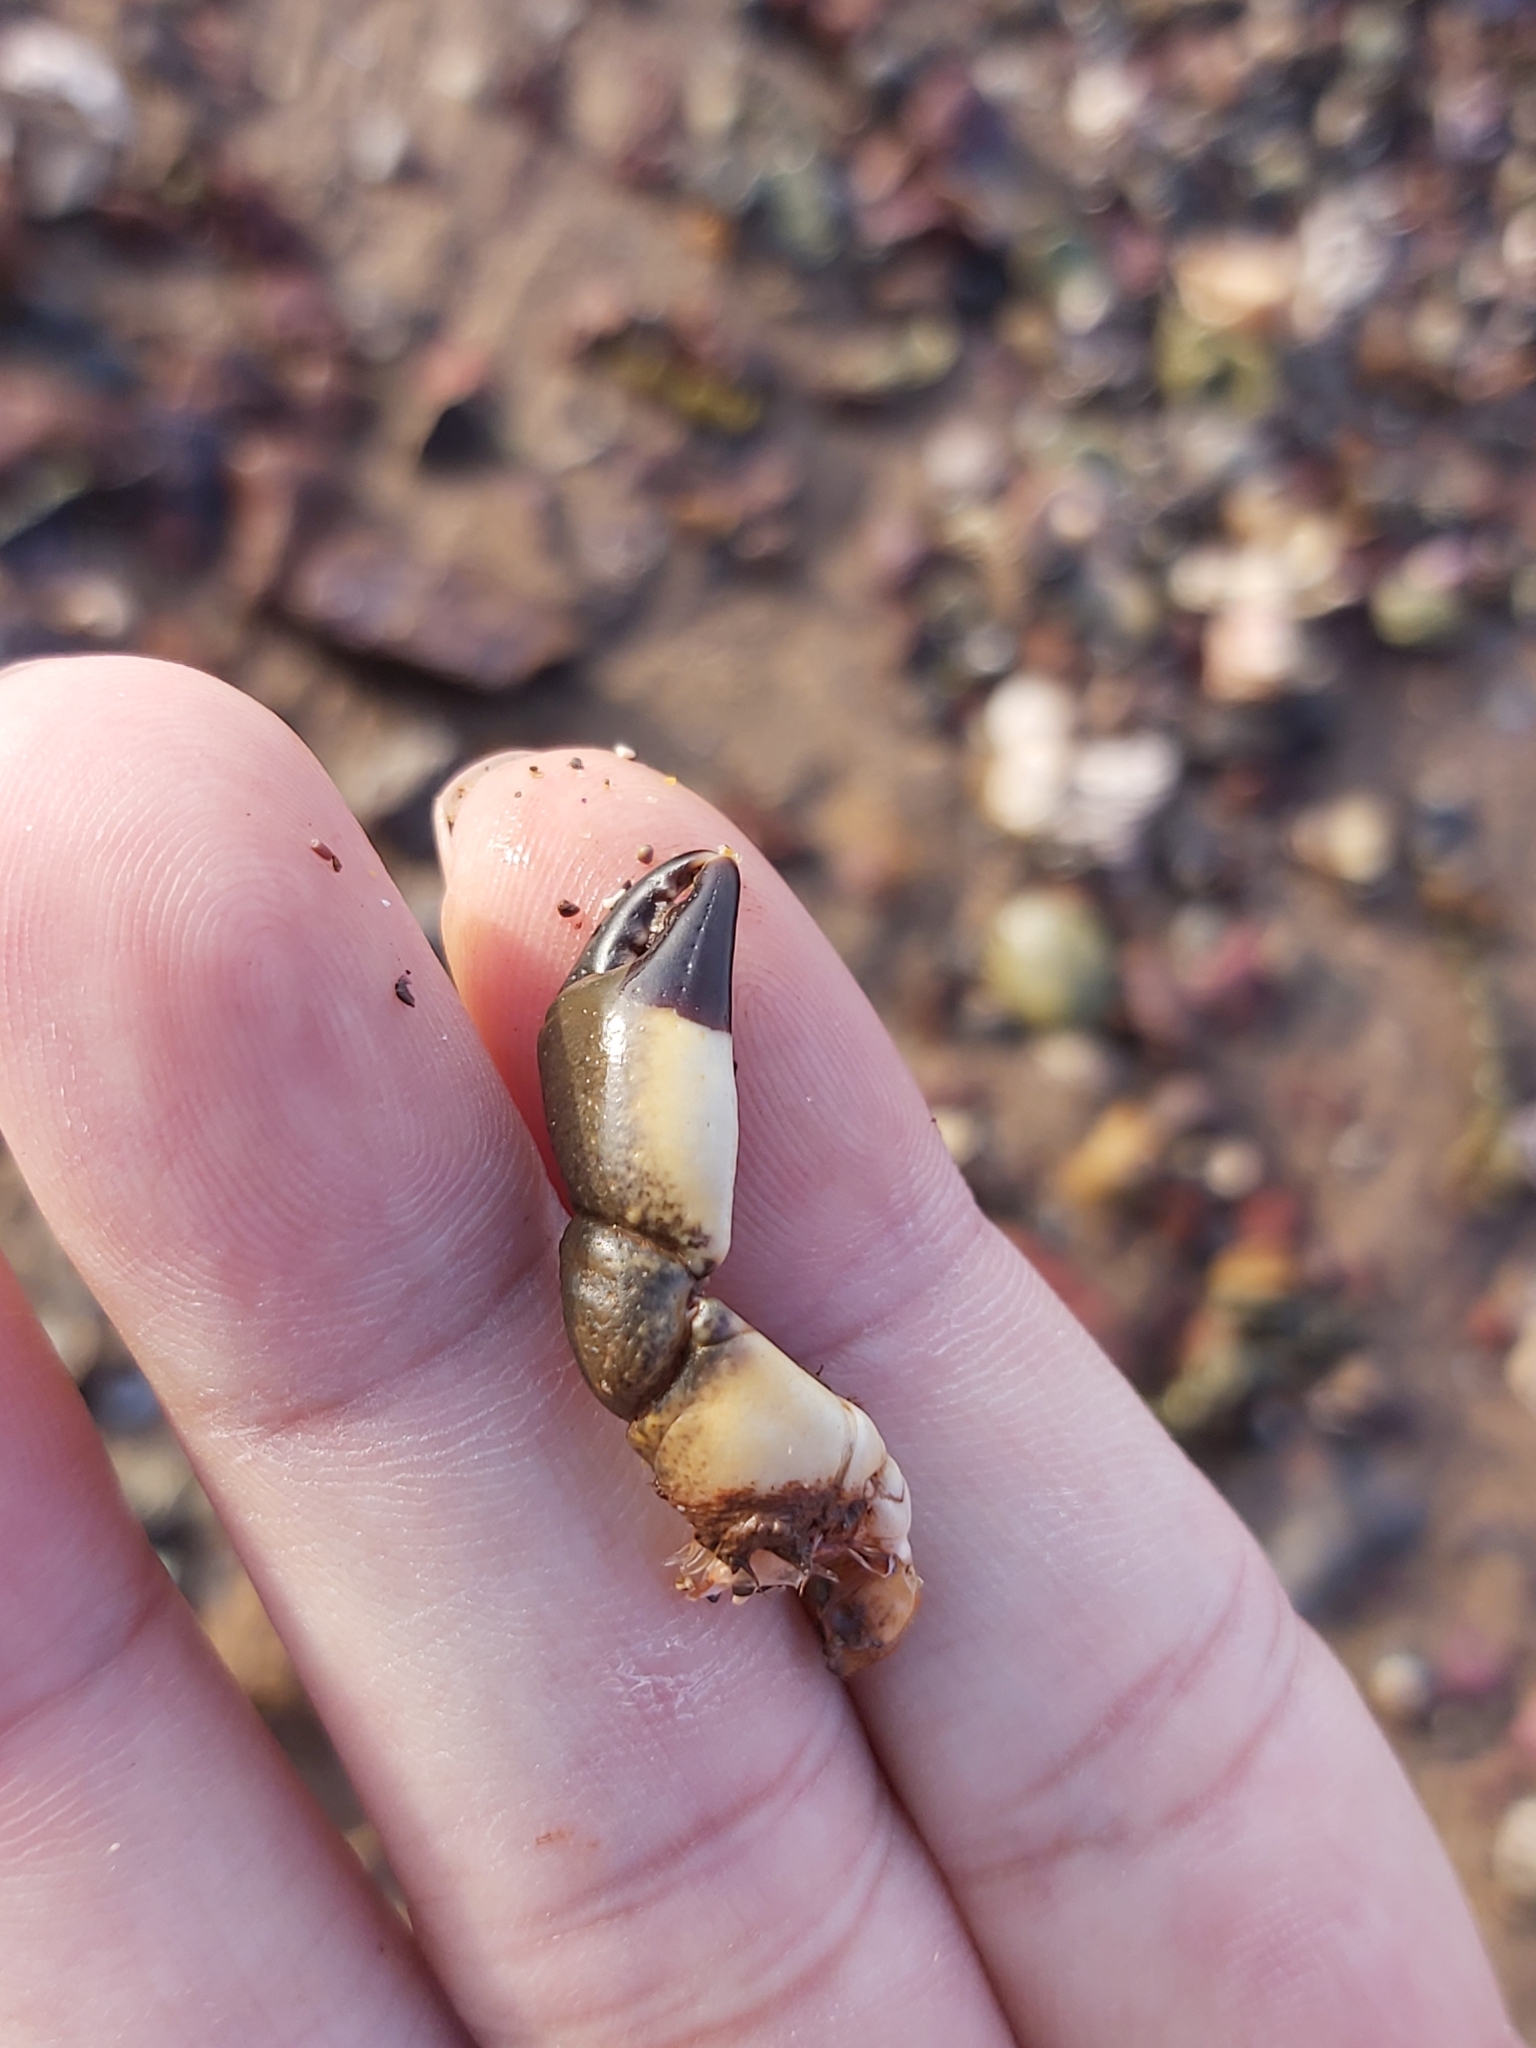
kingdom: Animalia
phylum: Arthropoda
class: Malacostraca
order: Decapoda
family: Oziidae
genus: Ozius
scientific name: Ozius truncatus
